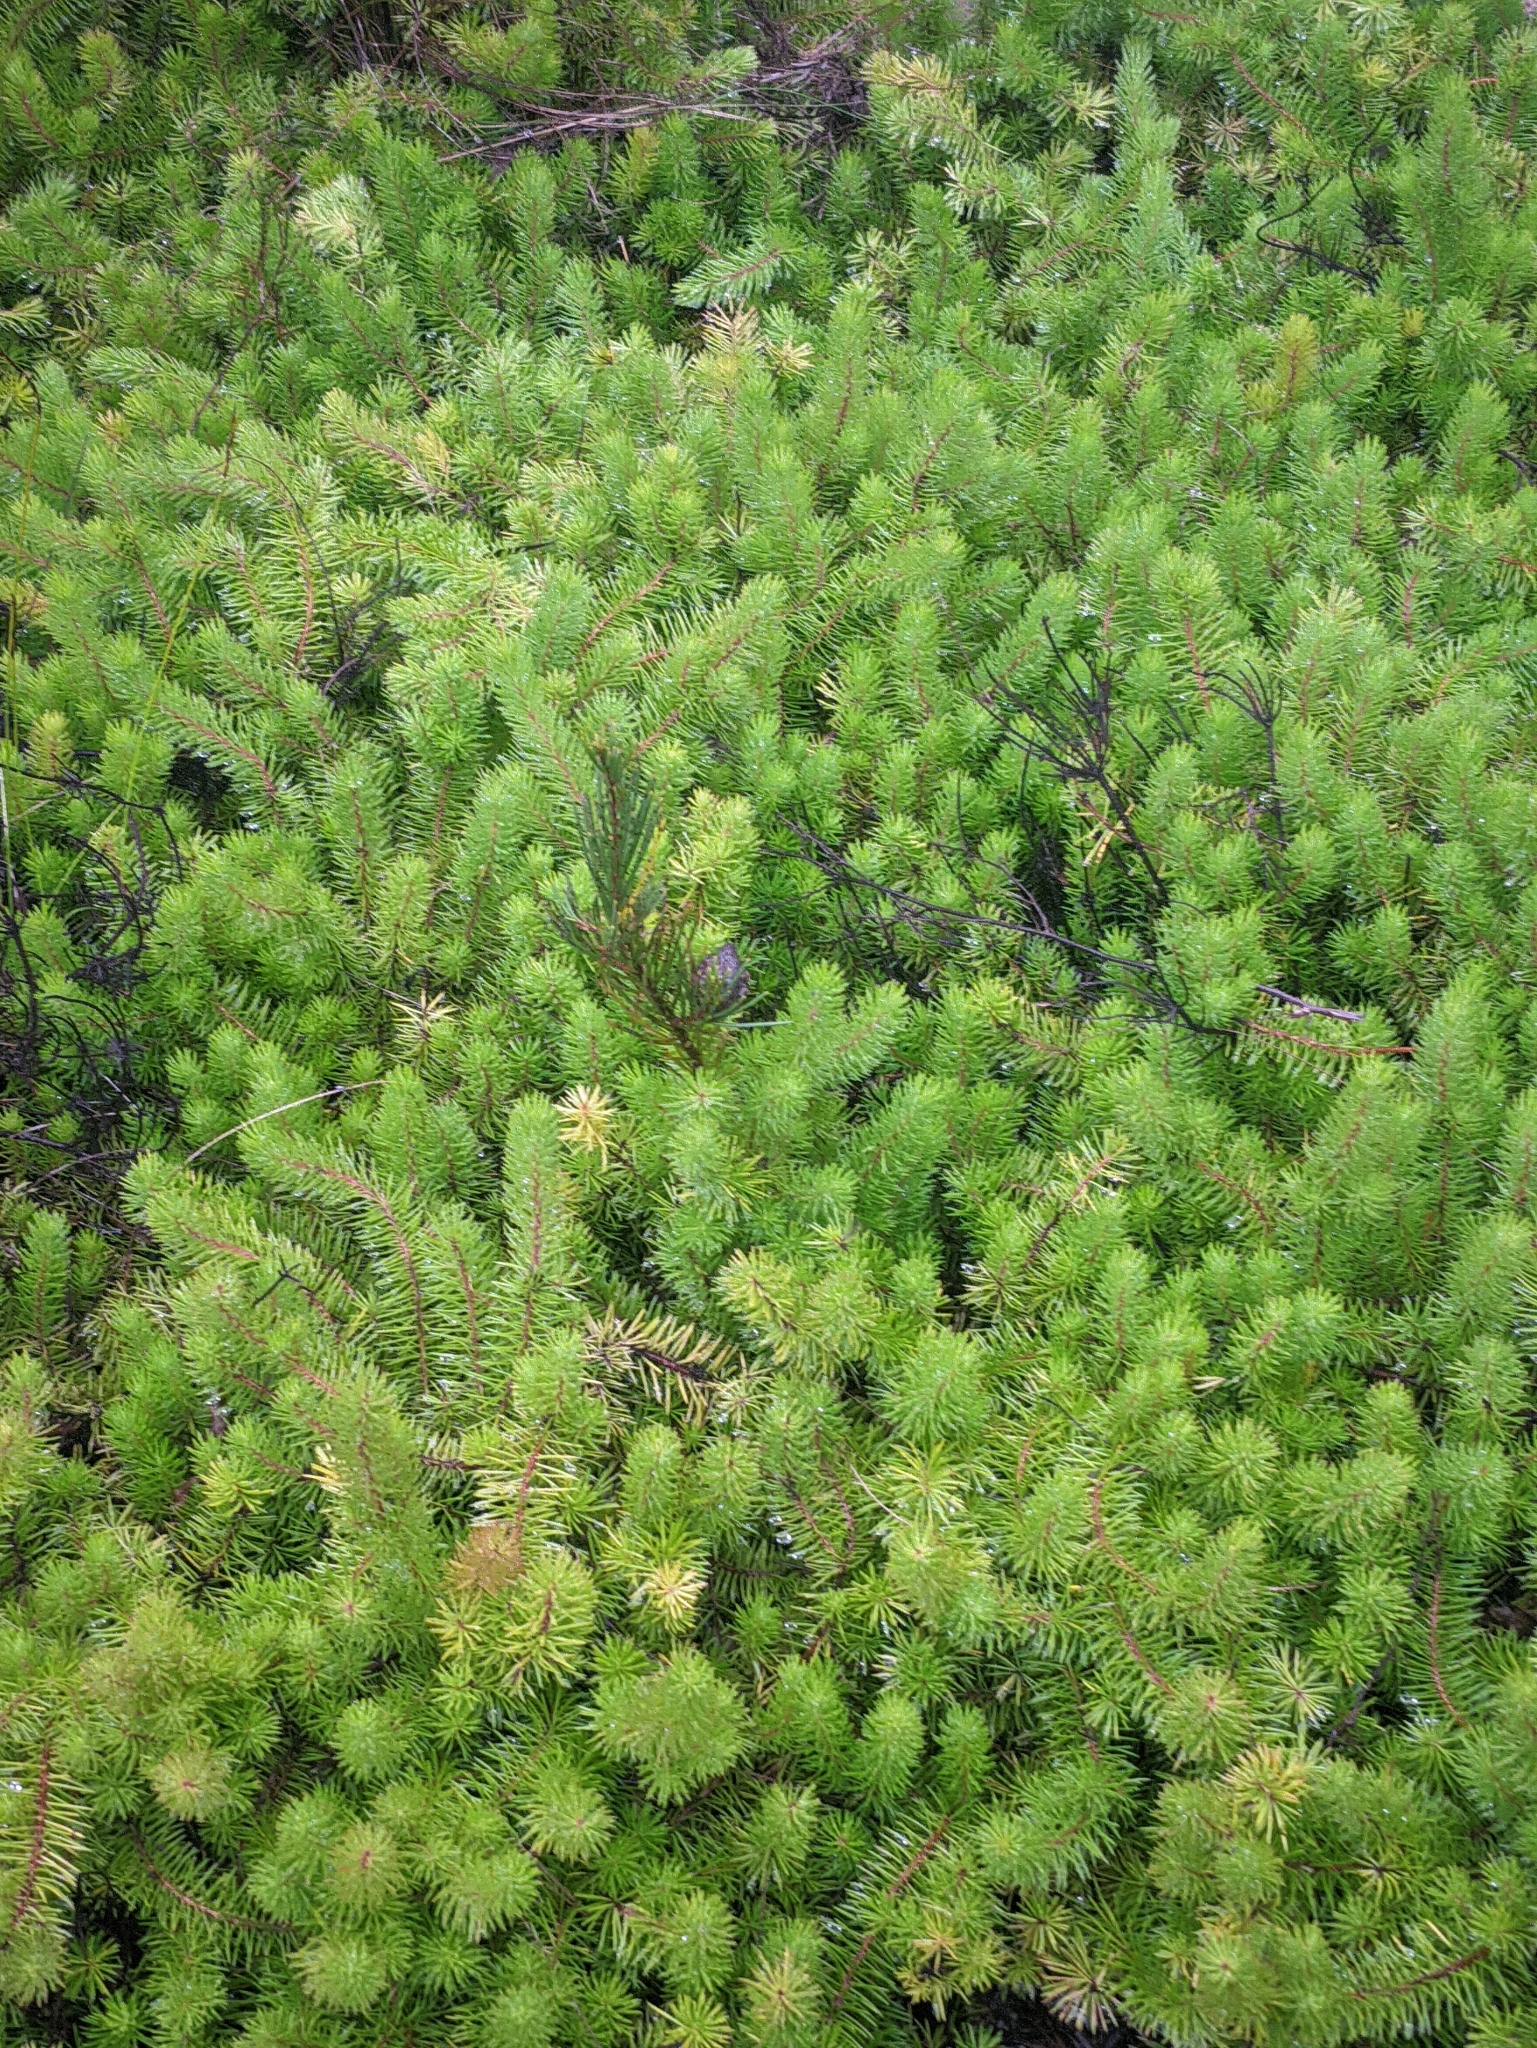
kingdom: Plantae
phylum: Tracheophyta
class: Magnoliopsida
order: Proteales
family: Proteaceae
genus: Persoonia
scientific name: Persoonia chamaepitys
